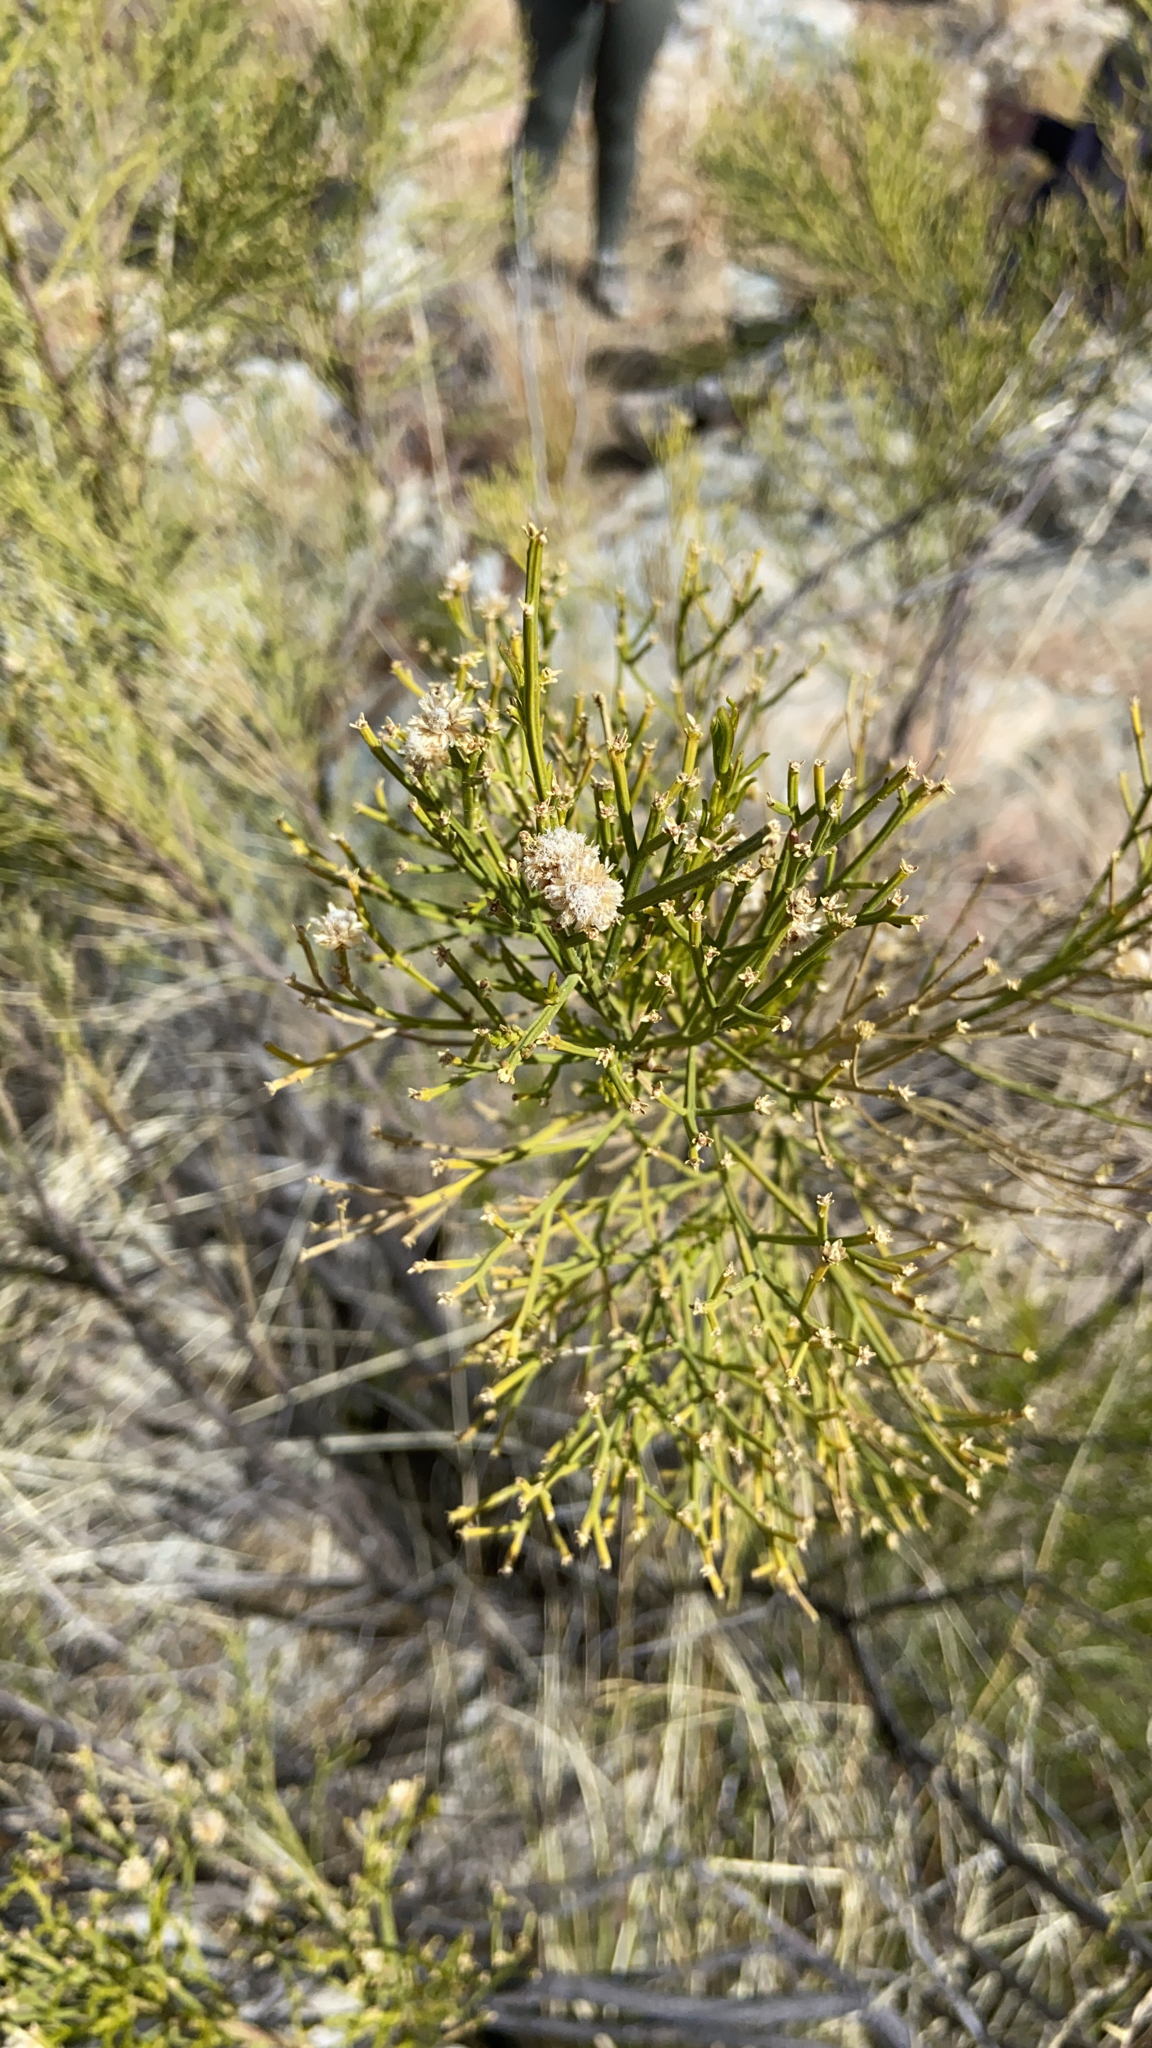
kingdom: Plantae
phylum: Tracheophyta
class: Magnoliopsida
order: Asterales
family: Asteraceae
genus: Baccharis
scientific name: Baccharis sarothroides
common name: Desert-broom
